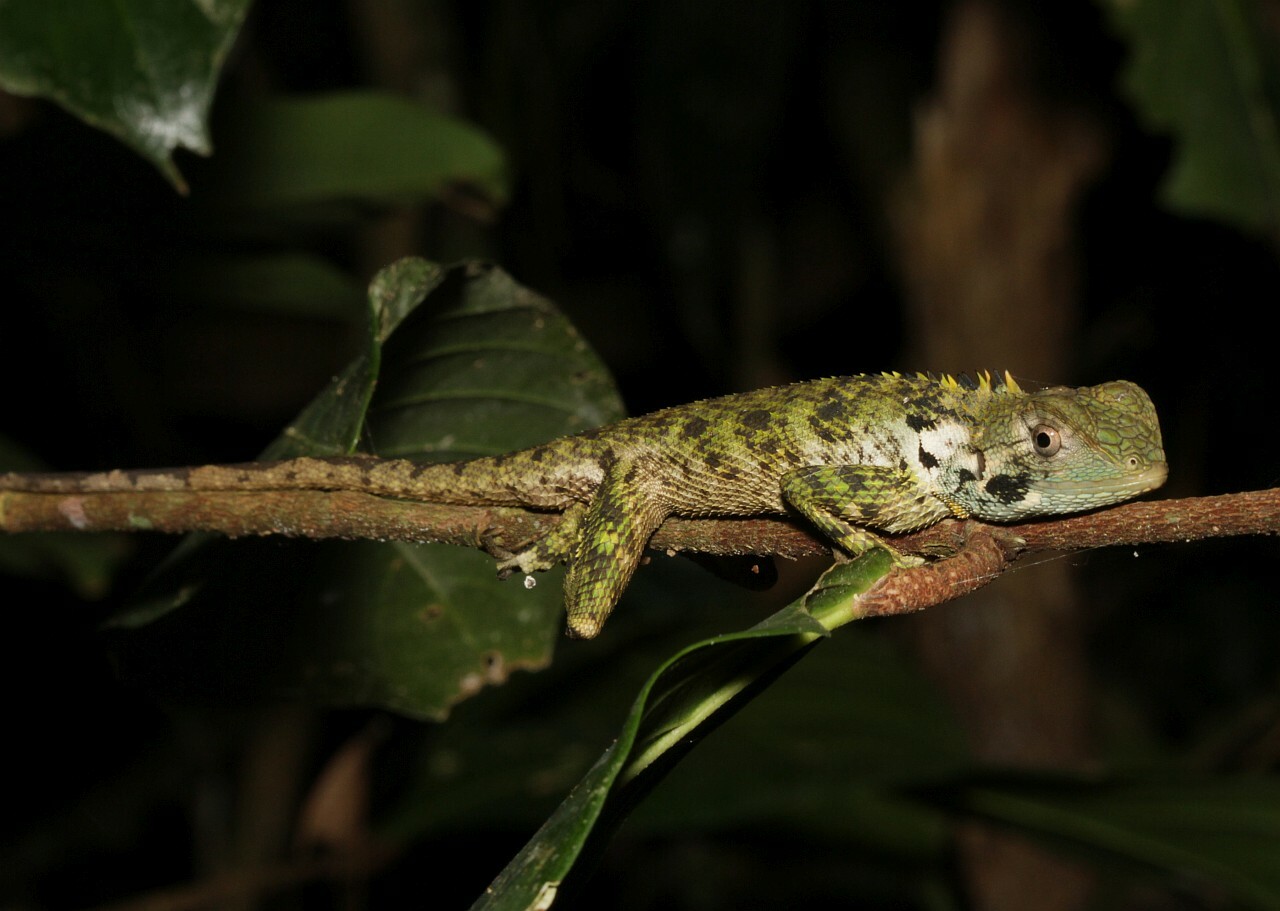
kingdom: Animalia
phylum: Chordata
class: Squamata
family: Tropiduridae
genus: Plica
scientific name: Plica umbra
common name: Harlequin racerunner
